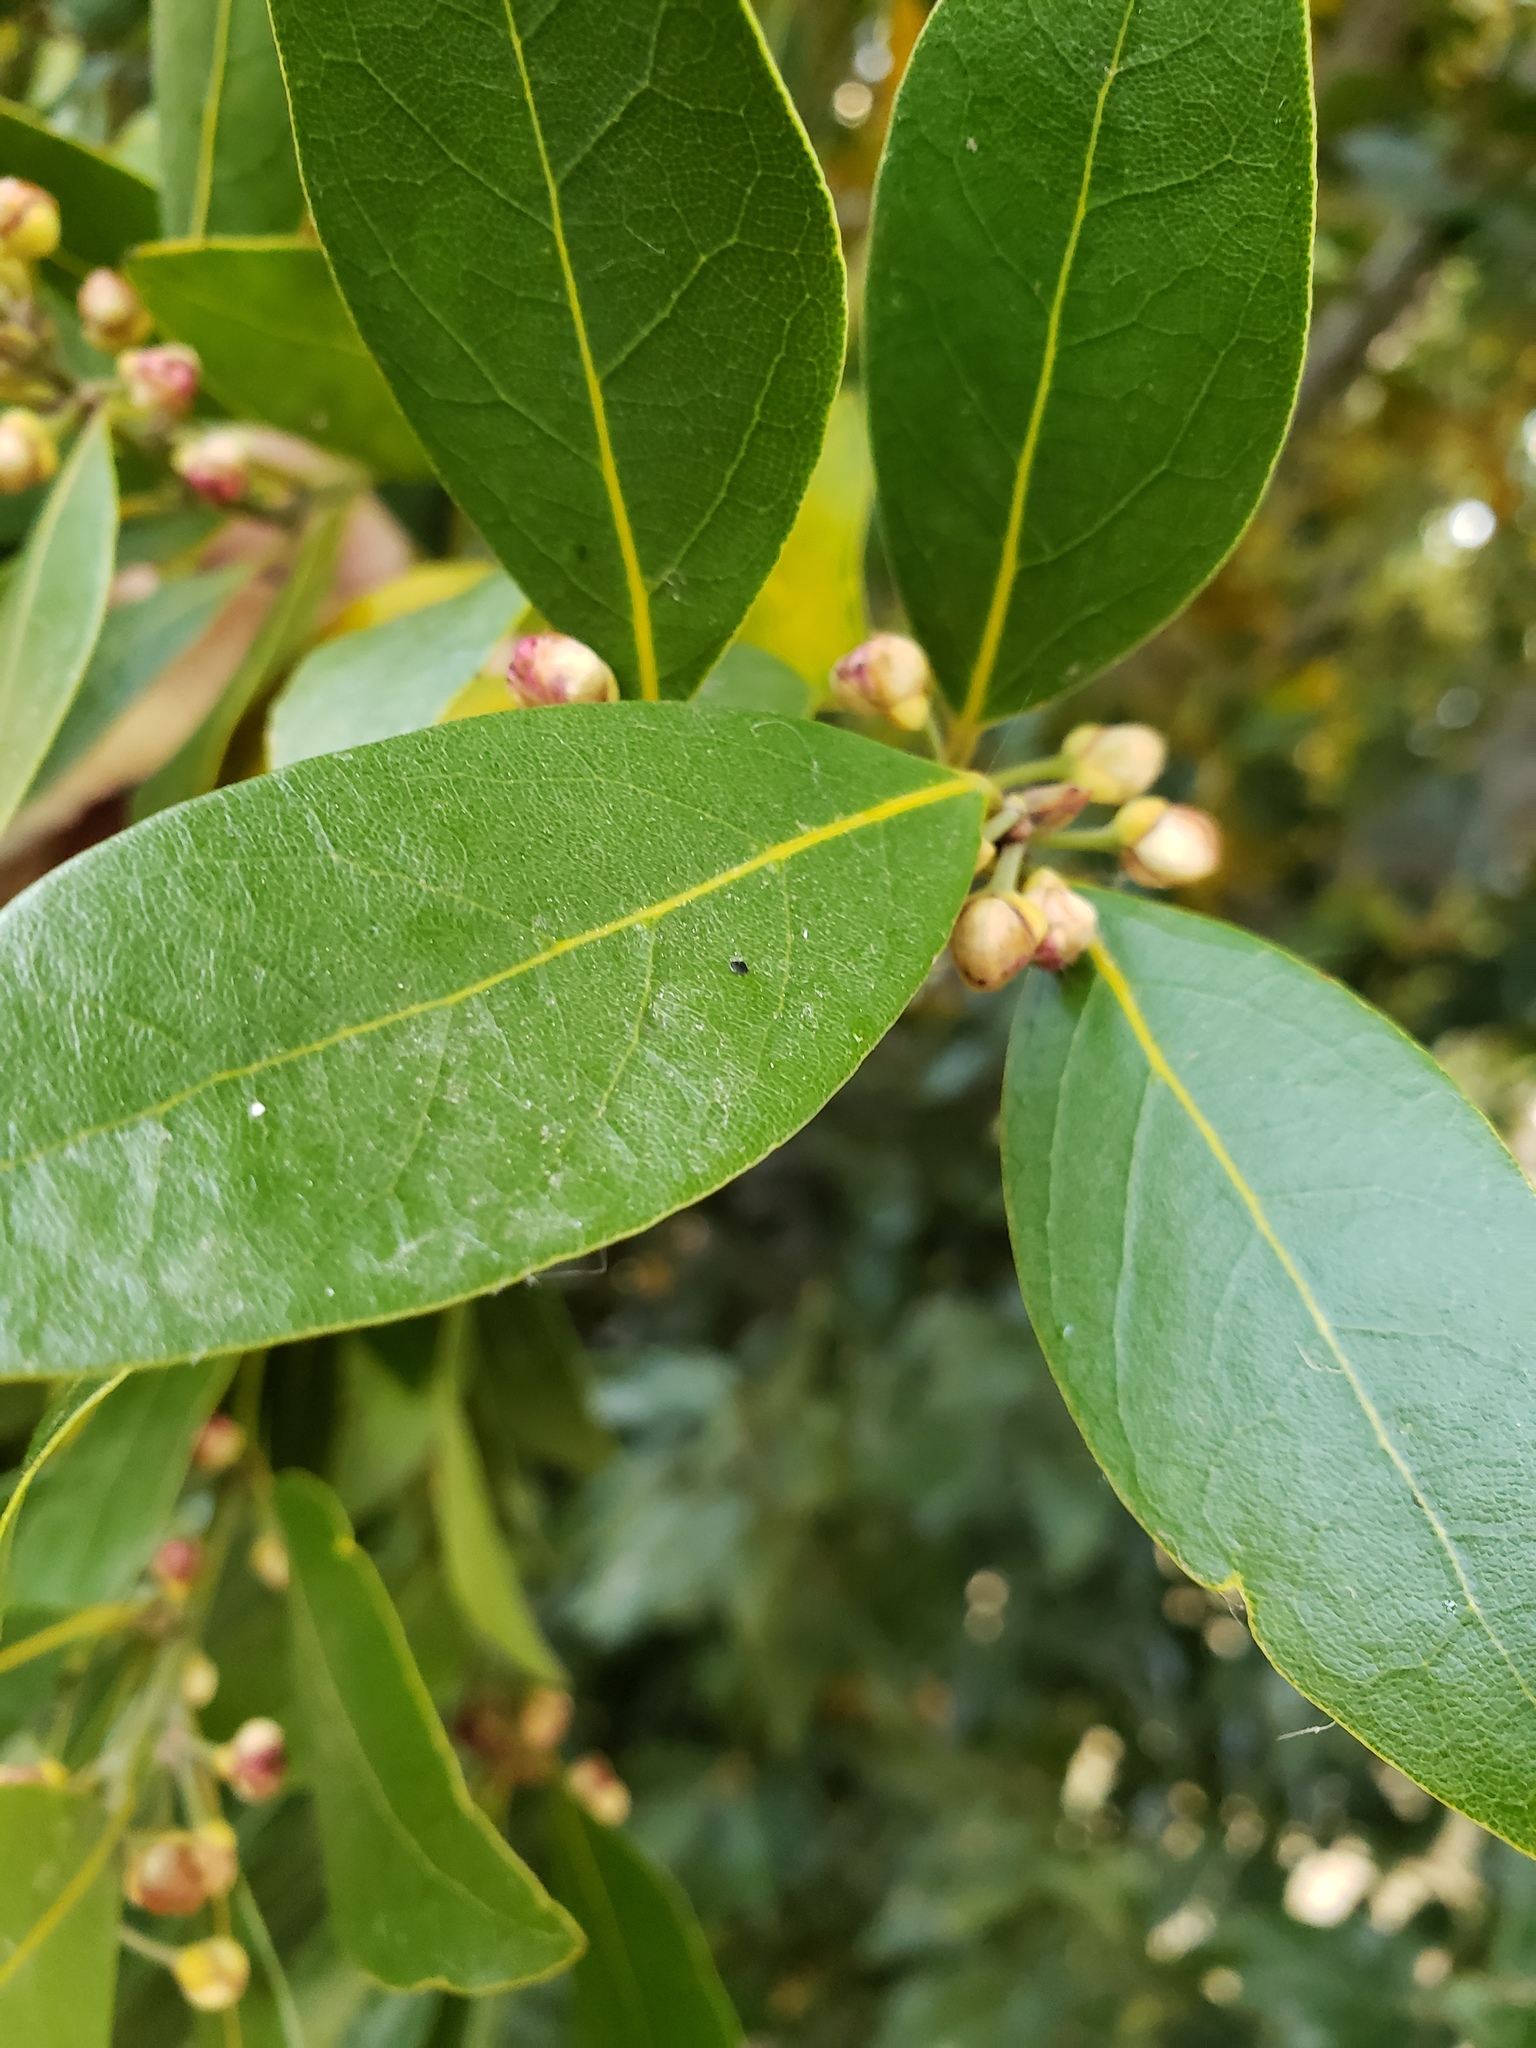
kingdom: Plantae
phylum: Tracheophyta
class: Magnoliopsida
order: Laurales
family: Lauraceae
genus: Umbellularia
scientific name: Umbellularia californica
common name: California bay
